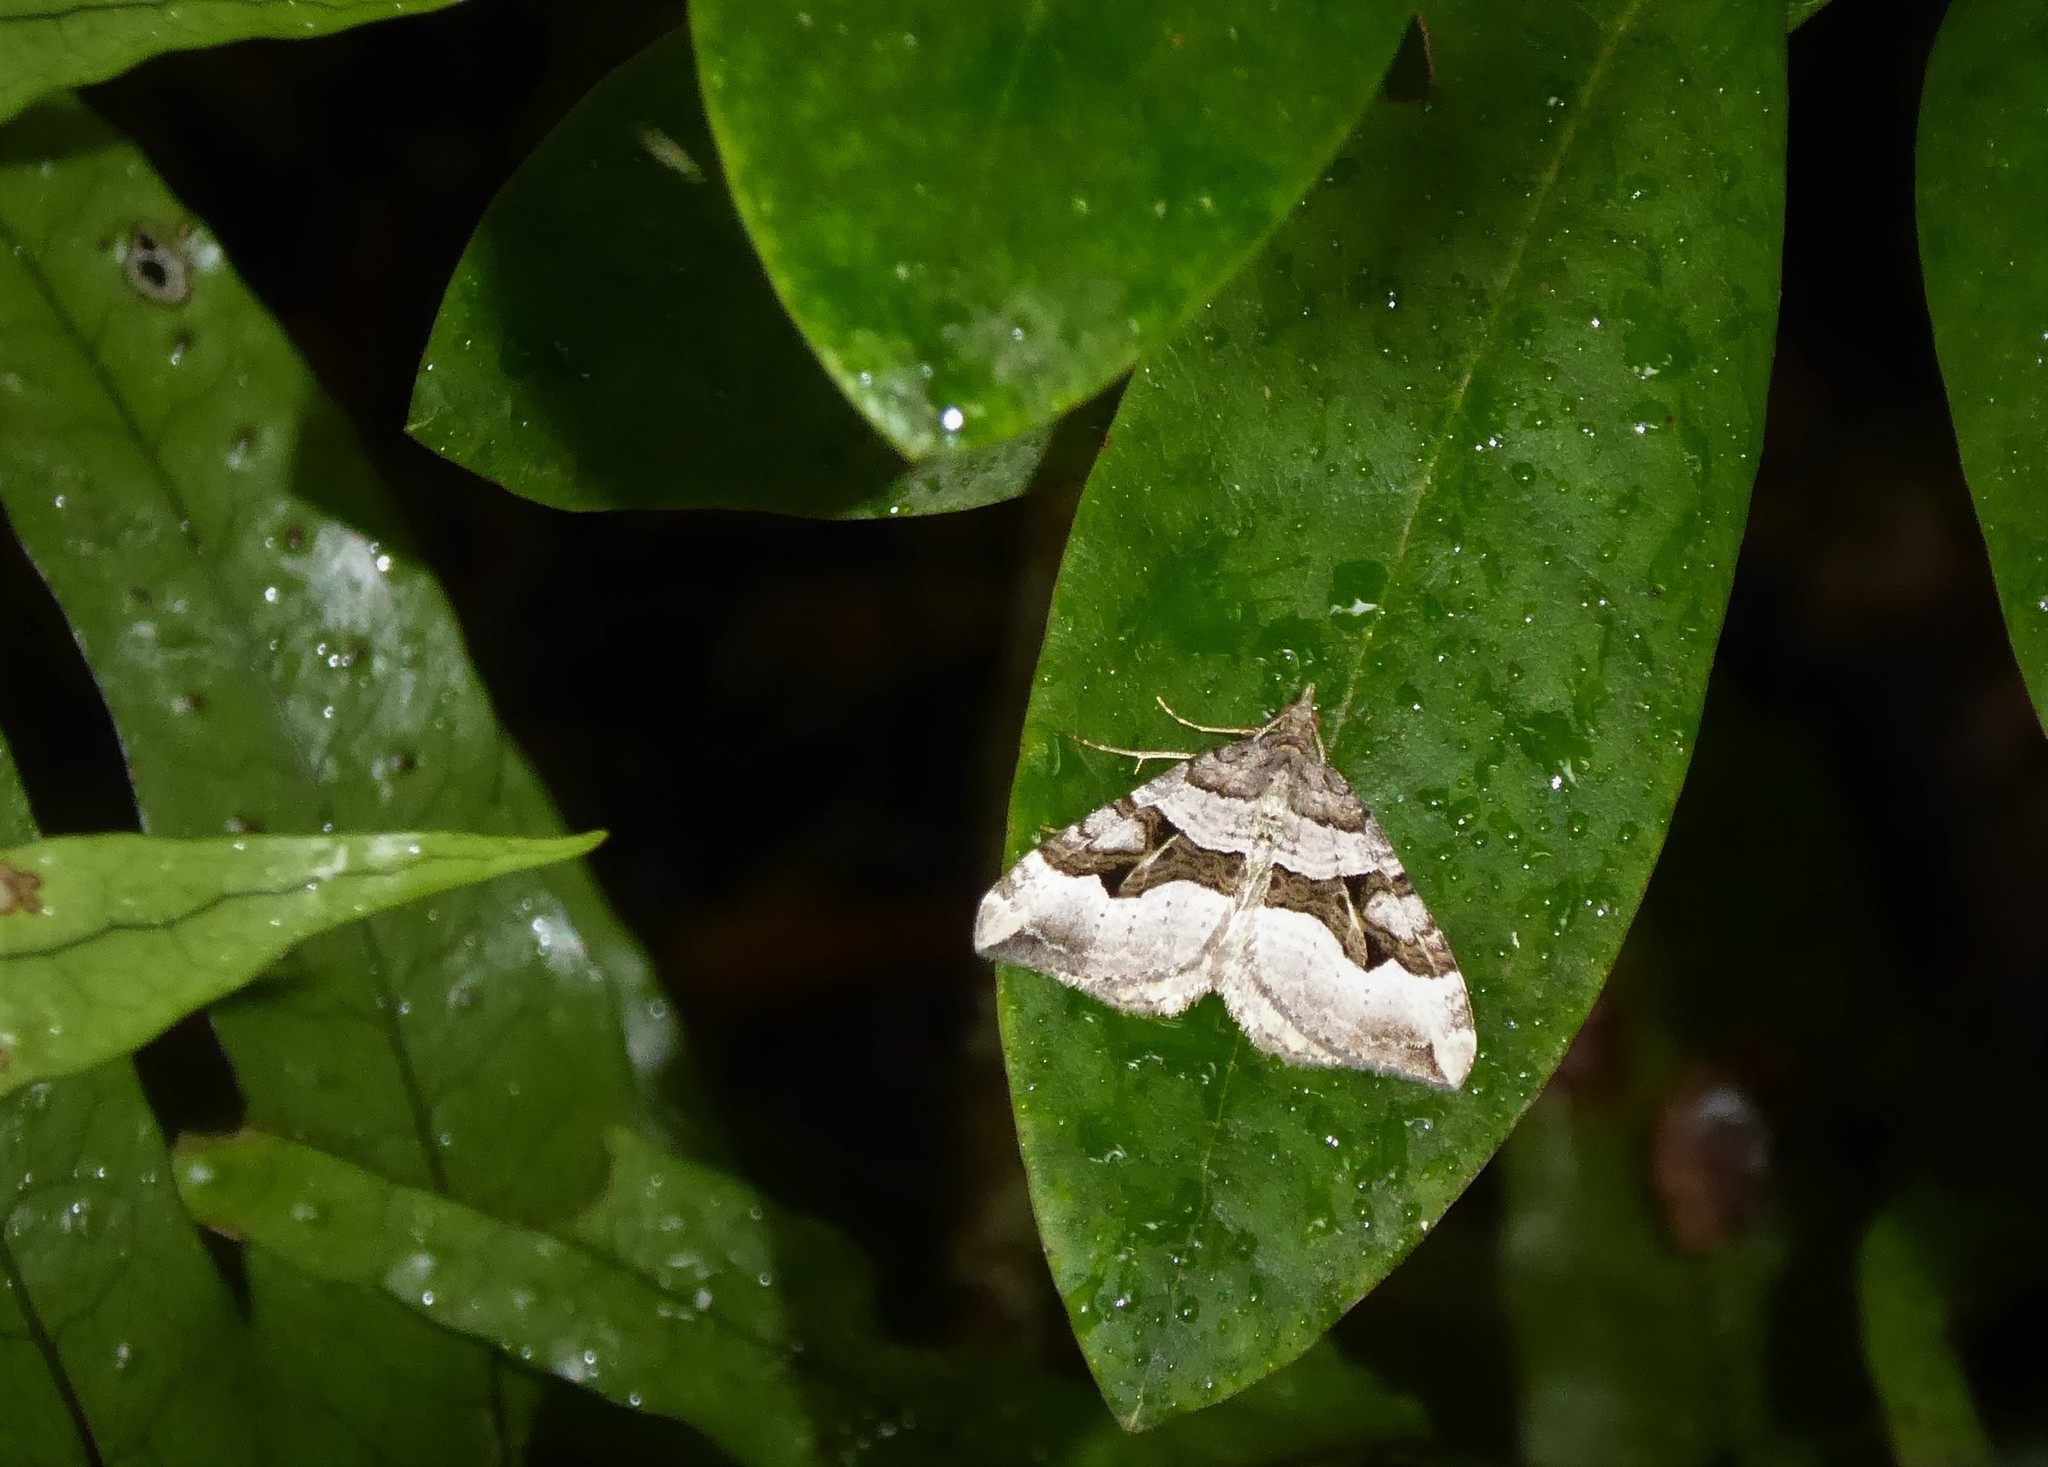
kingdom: Animalia
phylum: Arthropoda
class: Insecta
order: Lepidoptera
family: Geometridae
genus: Xanthorhoe
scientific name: Xanthorhoe semifissata
